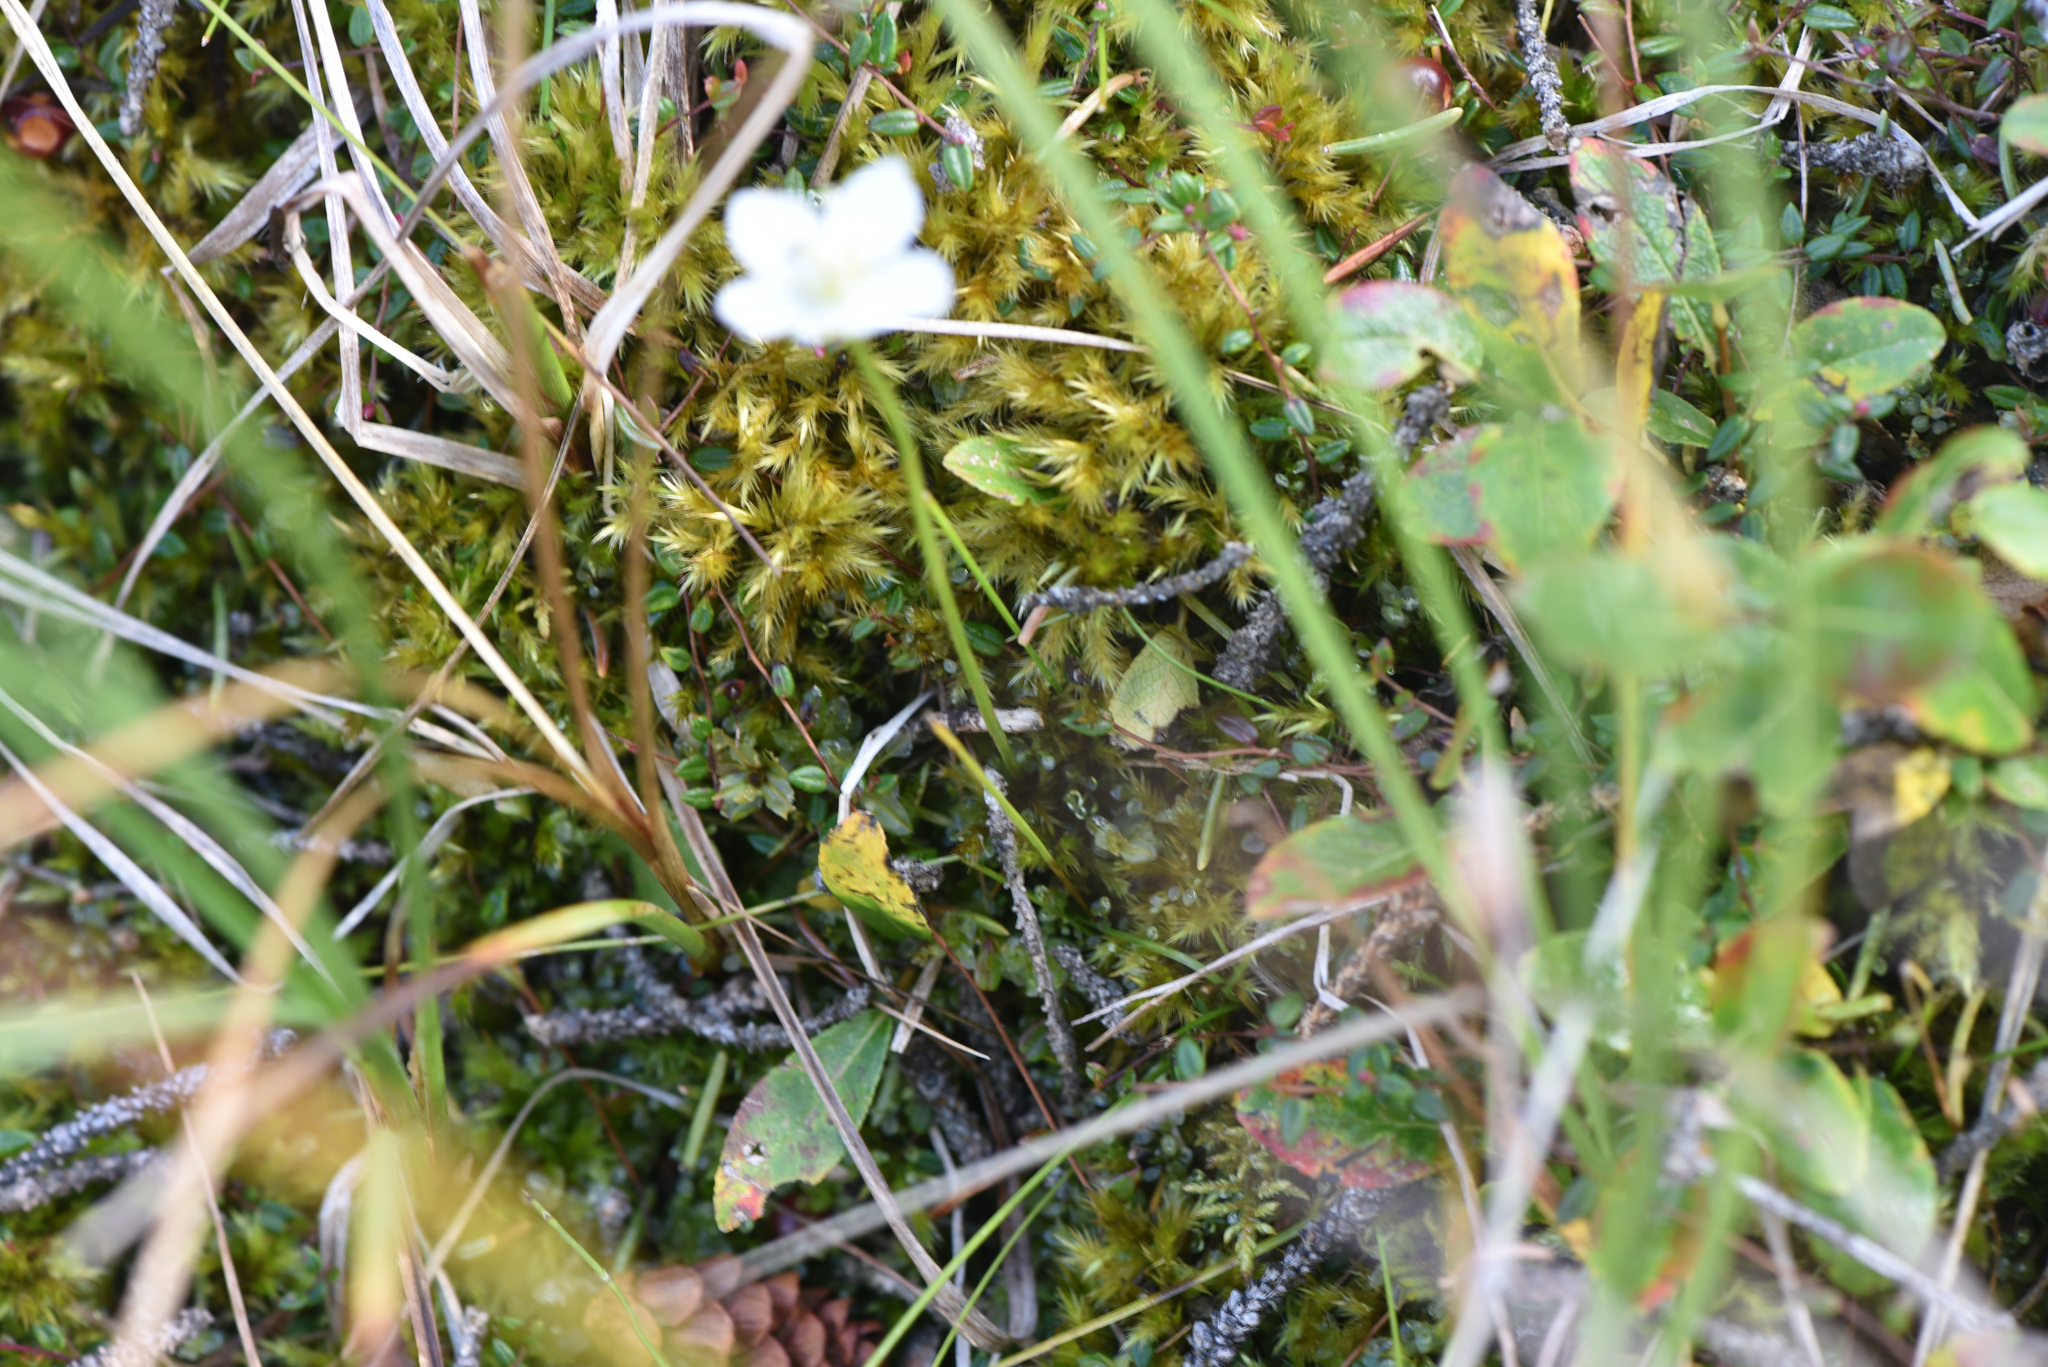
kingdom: Plantae
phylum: Tracheophyta
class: Magnoliopsida
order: Celastrales
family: Parnassiaceae
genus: Parnassia
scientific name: Parnassia palustris
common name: Grass-of-parnassus
